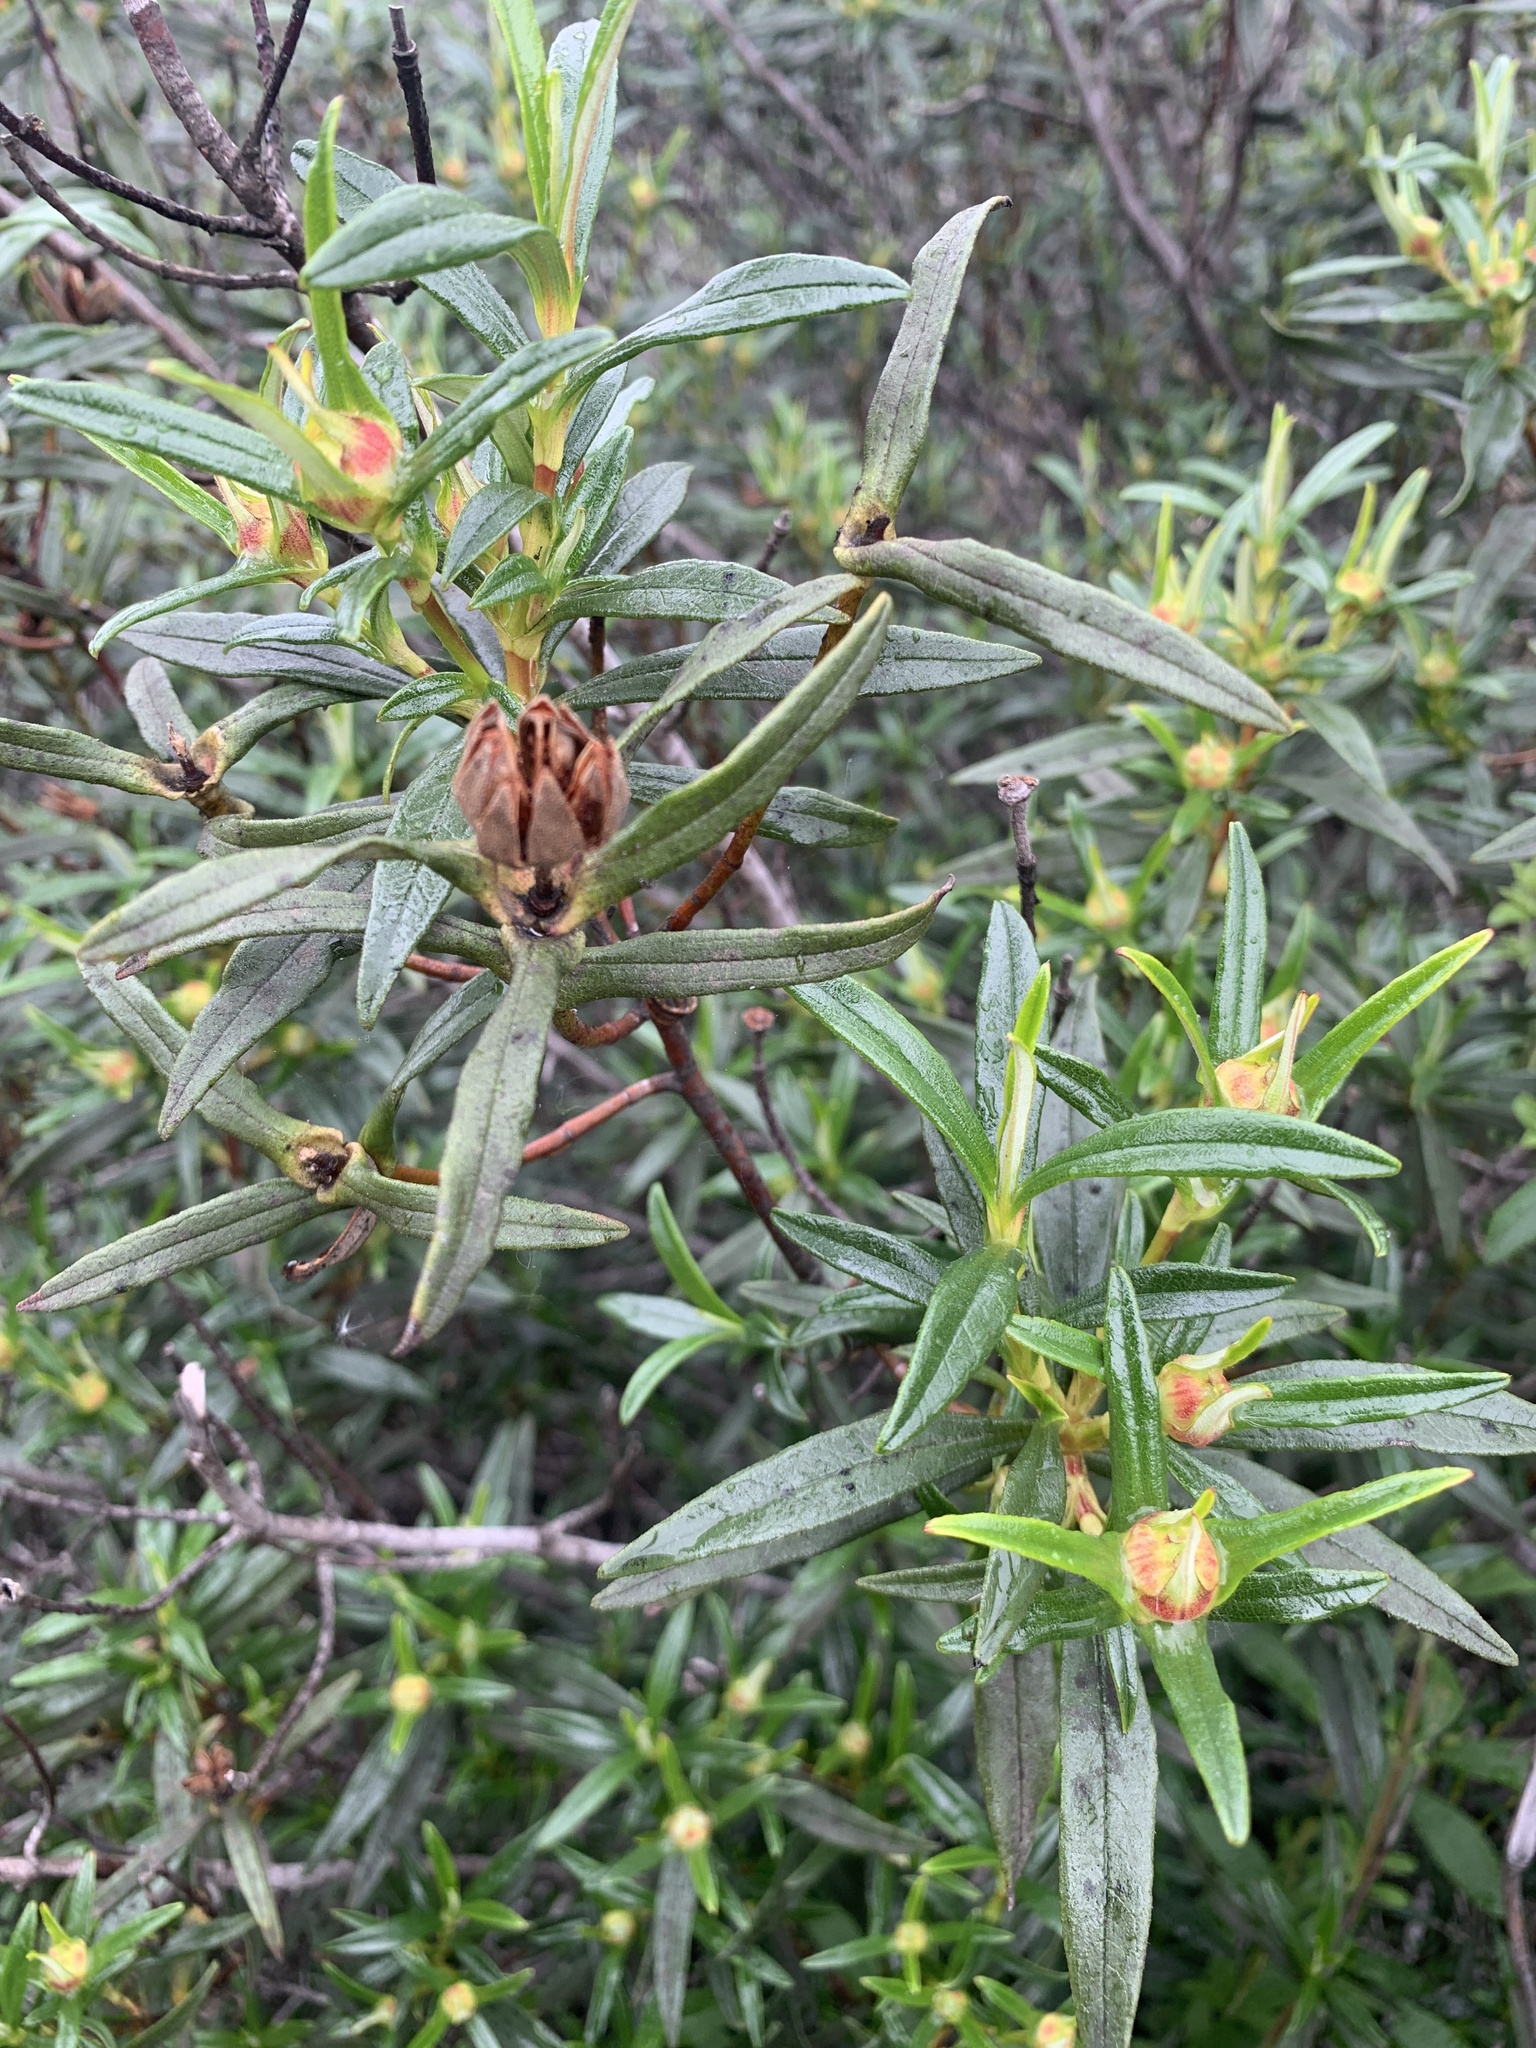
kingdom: Plantae
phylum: Tracheophyta
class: Magnoliopsida
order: Malvales
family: Cistaceae
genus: Cistus
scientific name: Cistus ladanifer
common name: Common gum cistus
